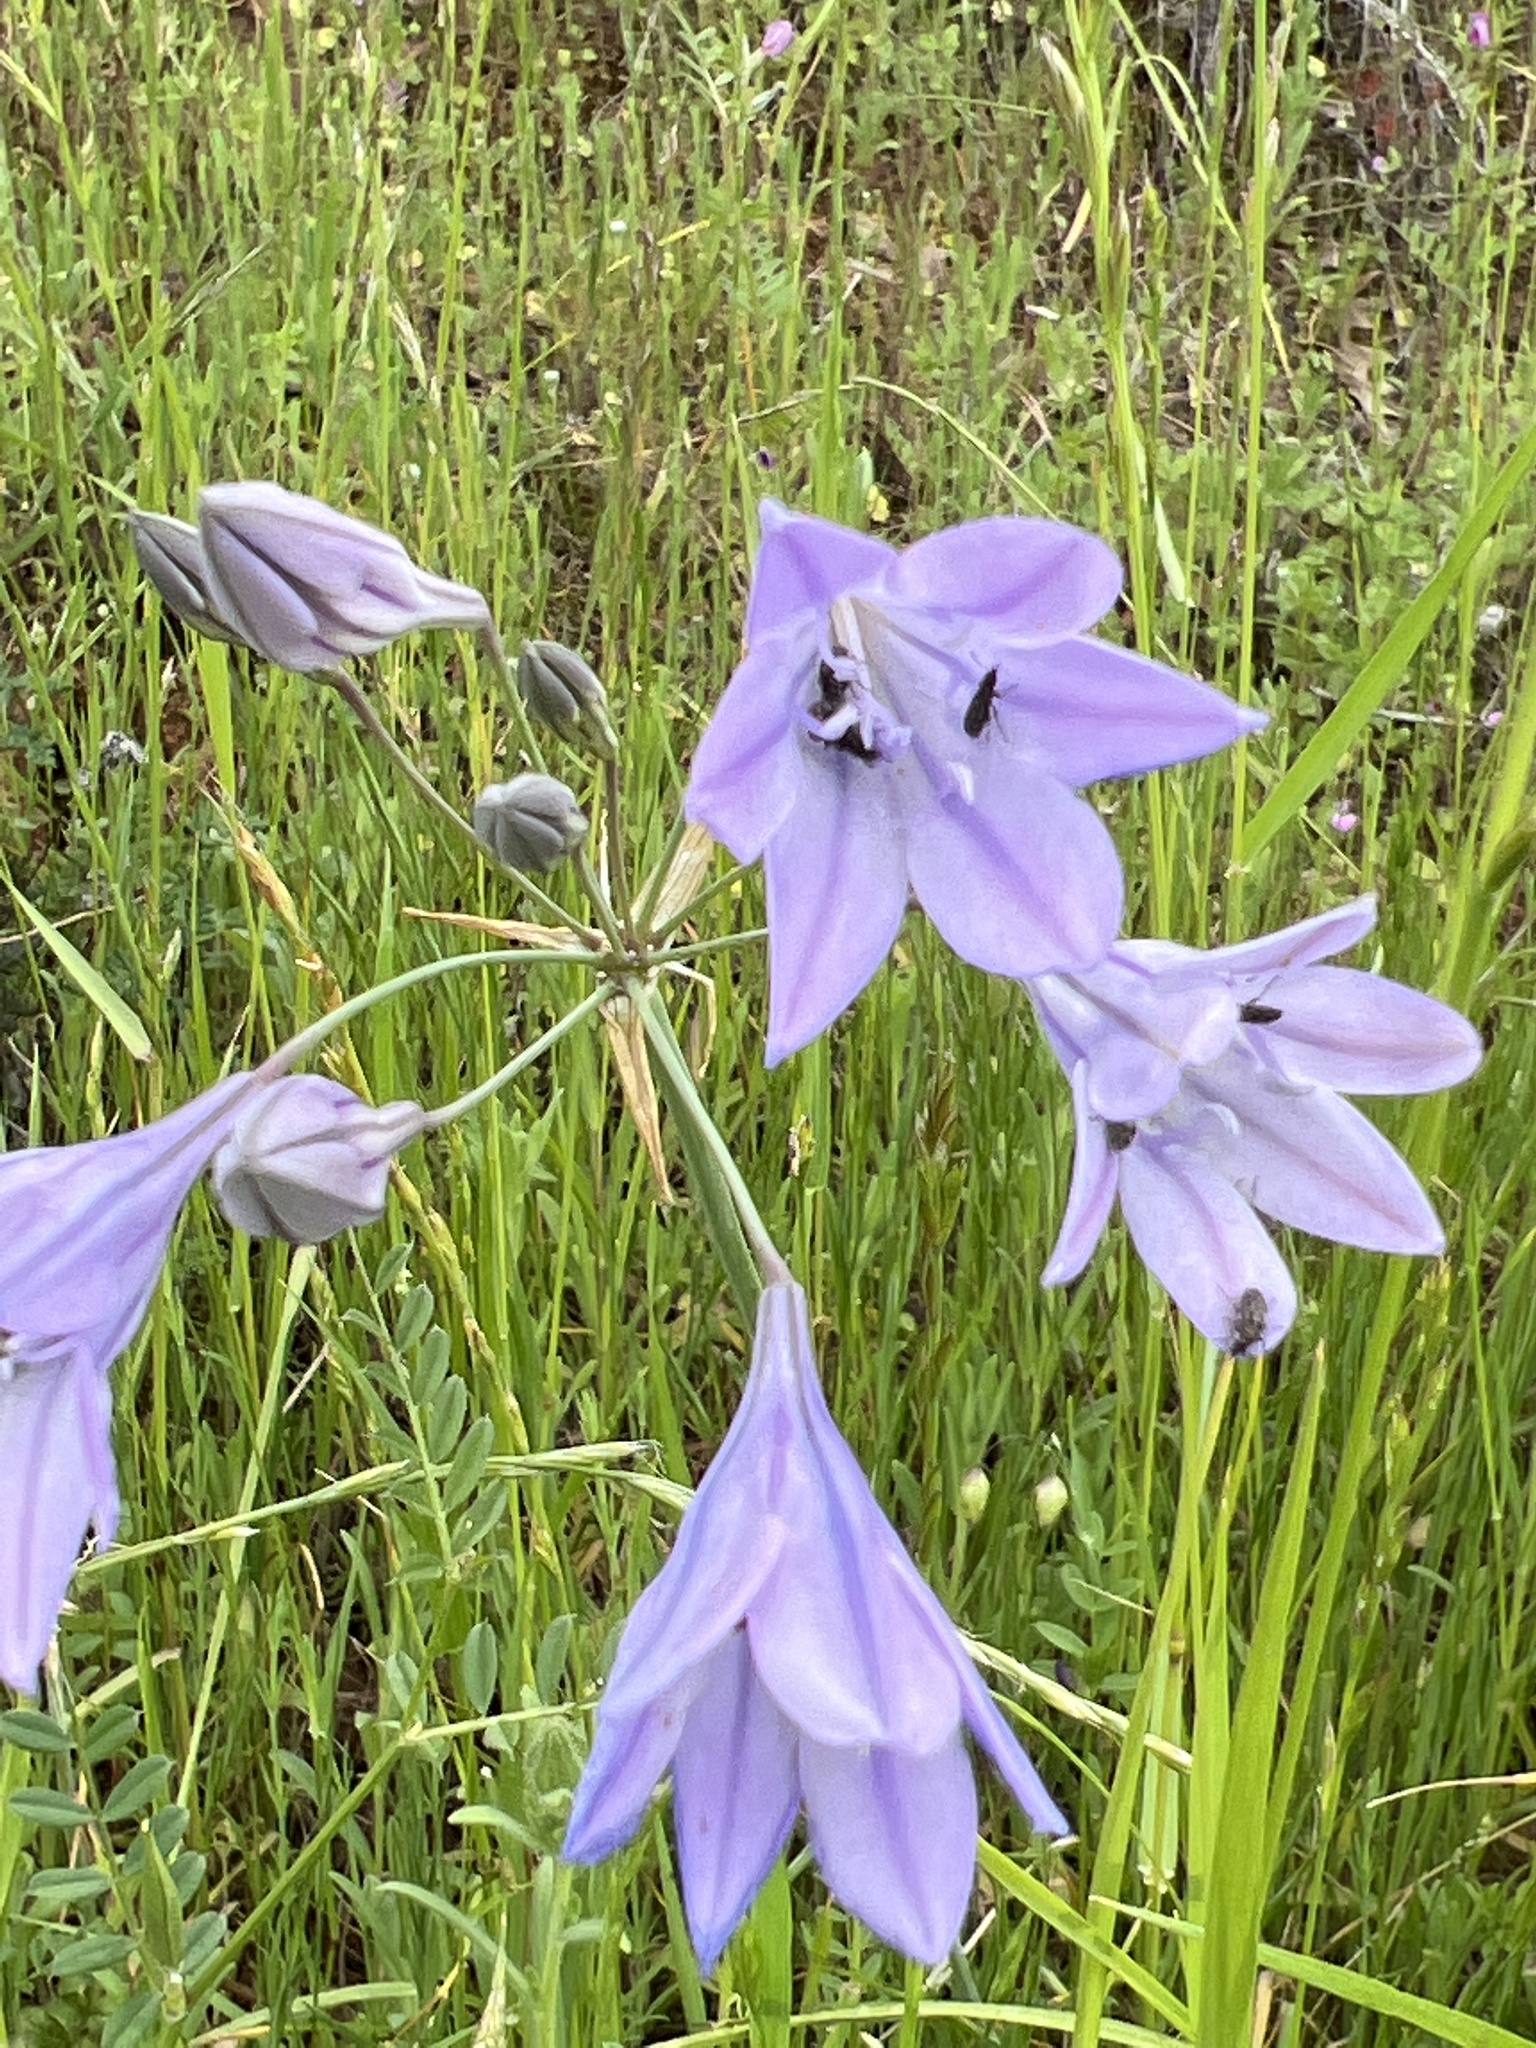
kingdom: Plantae
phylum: Tracheophyta
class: Liliopsida
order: Asparagales
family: Asparagaceae
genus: Triteleia
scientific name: Triteleia laxa
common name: Triplet-lily
